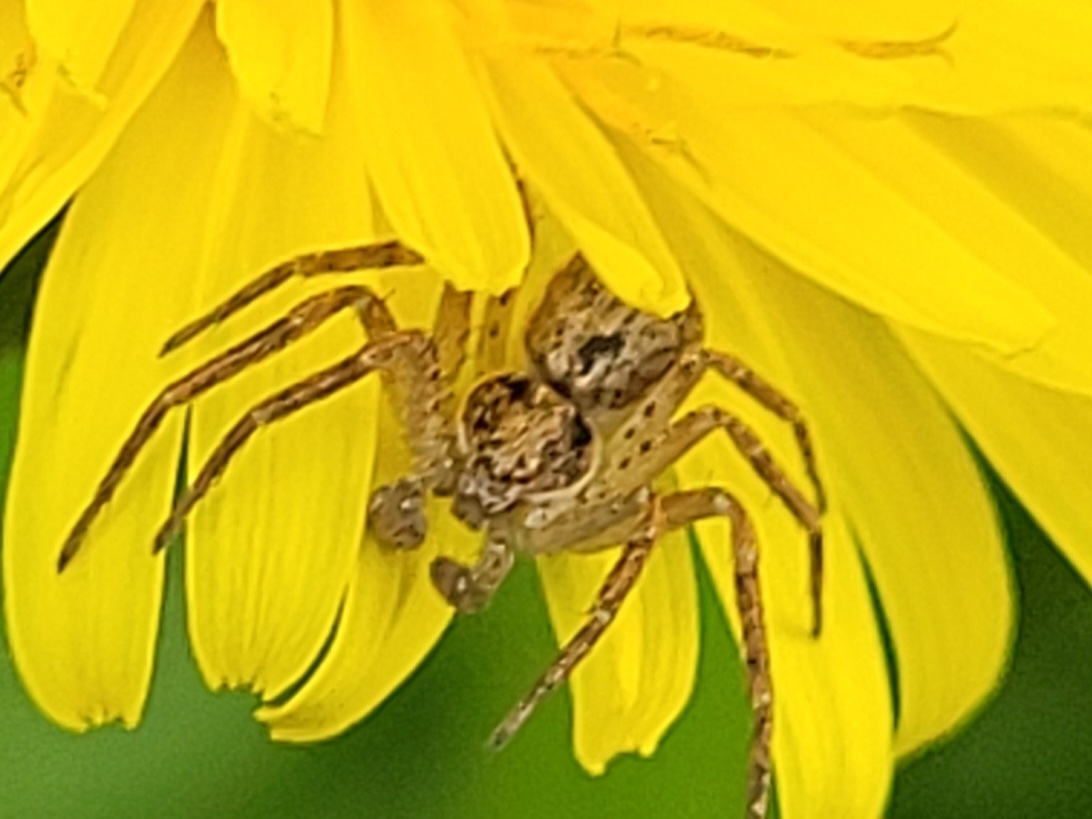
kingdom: Animalia
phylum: Arthropoda
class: Arachnida
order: Araneae
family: Philodromidae
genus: Philodromus
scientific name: Philodromus dispar
